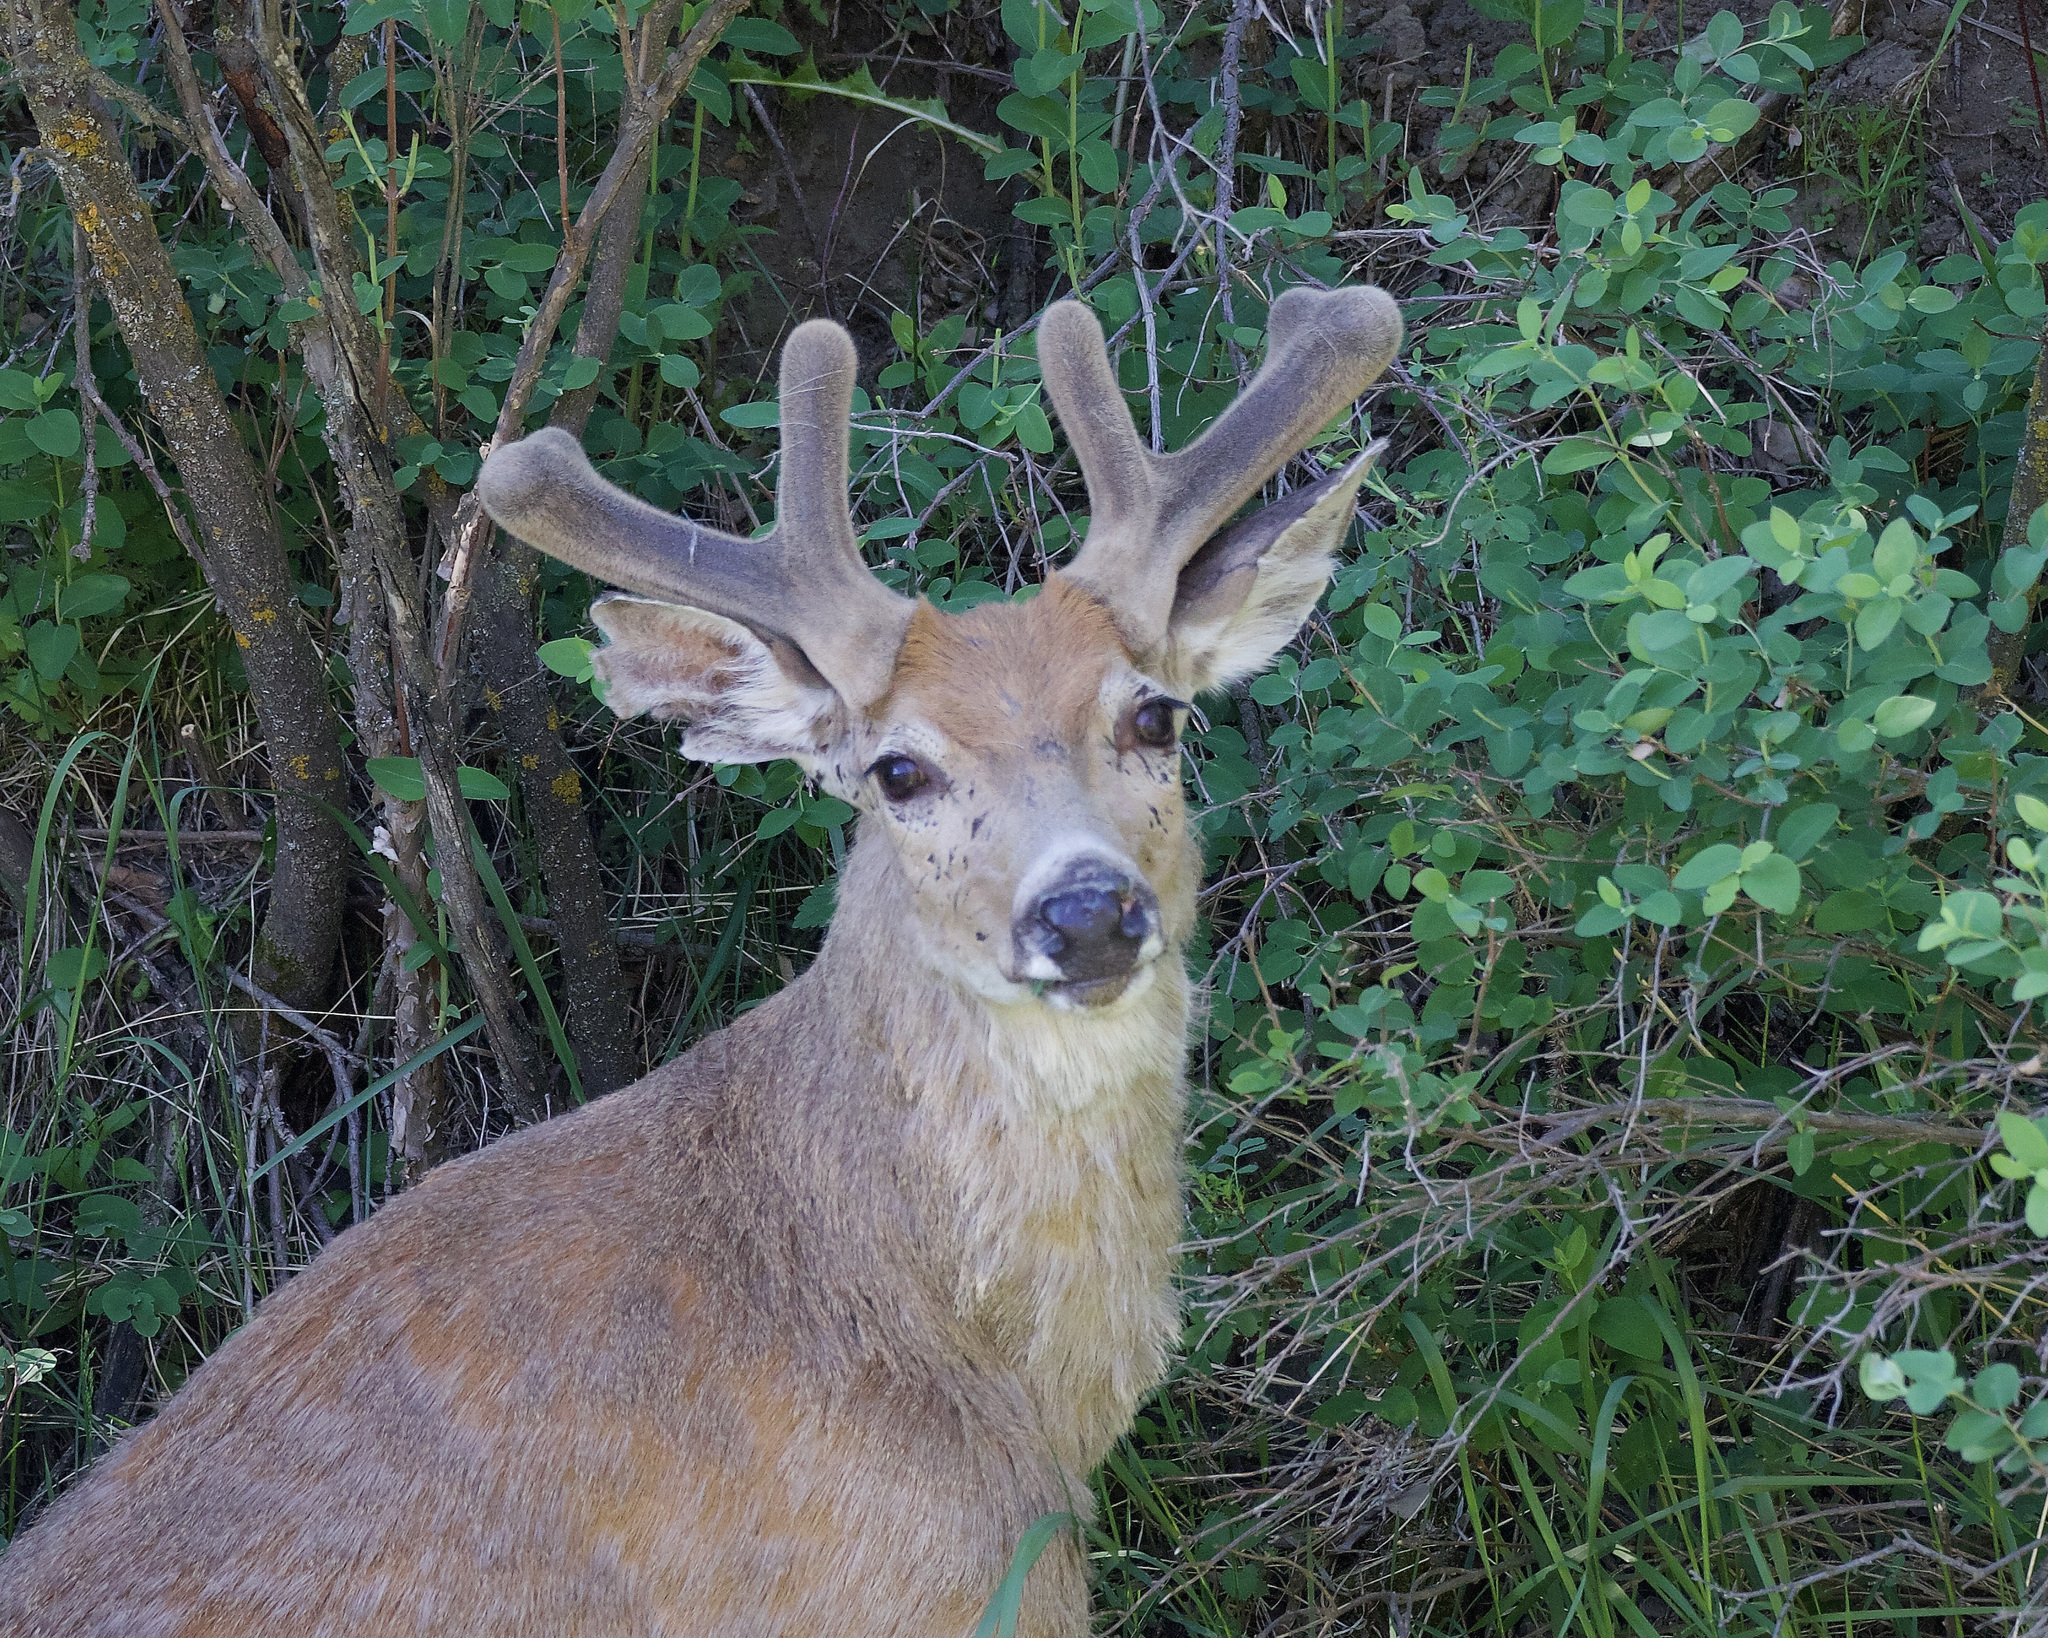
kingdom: Animalia
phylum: Chordata
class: Mammalia
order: Artiodactyla
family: Cervidae
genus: Odocoileus
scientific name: Odocoileus virginianus
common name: White-tailed deer
